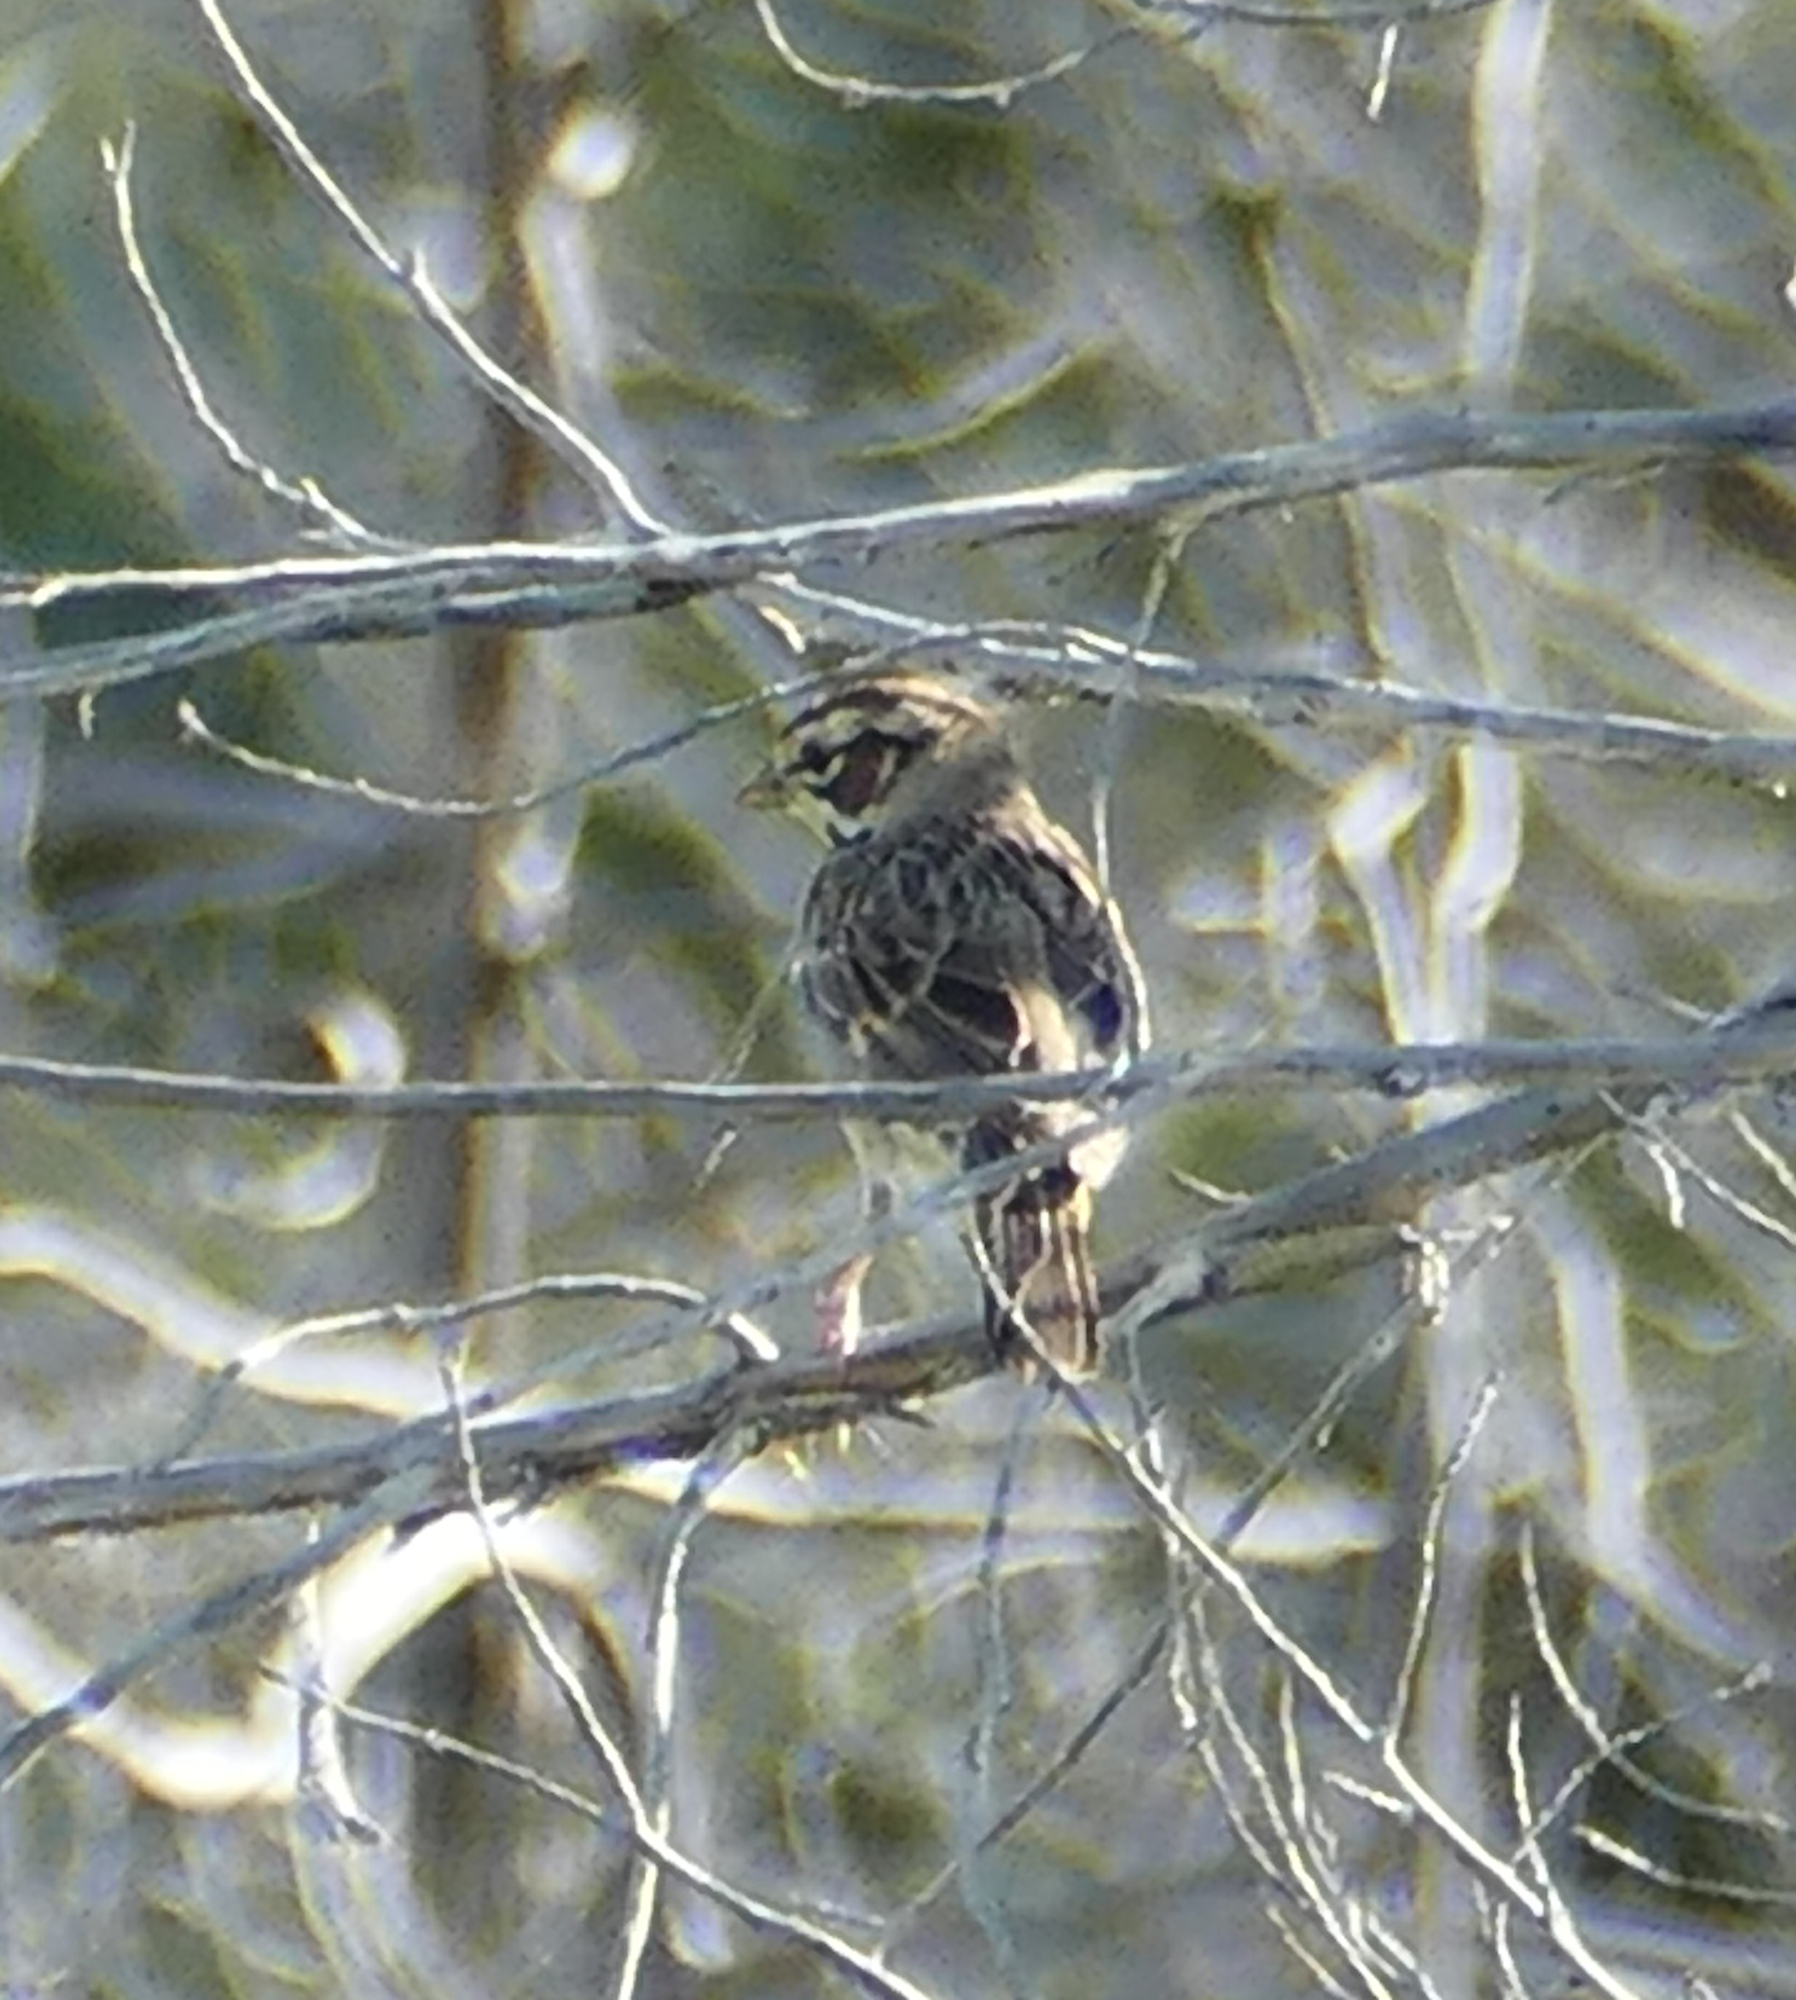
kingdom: Animalia
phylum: Chordata
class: Aves
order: Passeriformes
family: Passerellidae
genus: Chondestes
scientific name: Chondestes grammacus
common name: Lark sparrow
